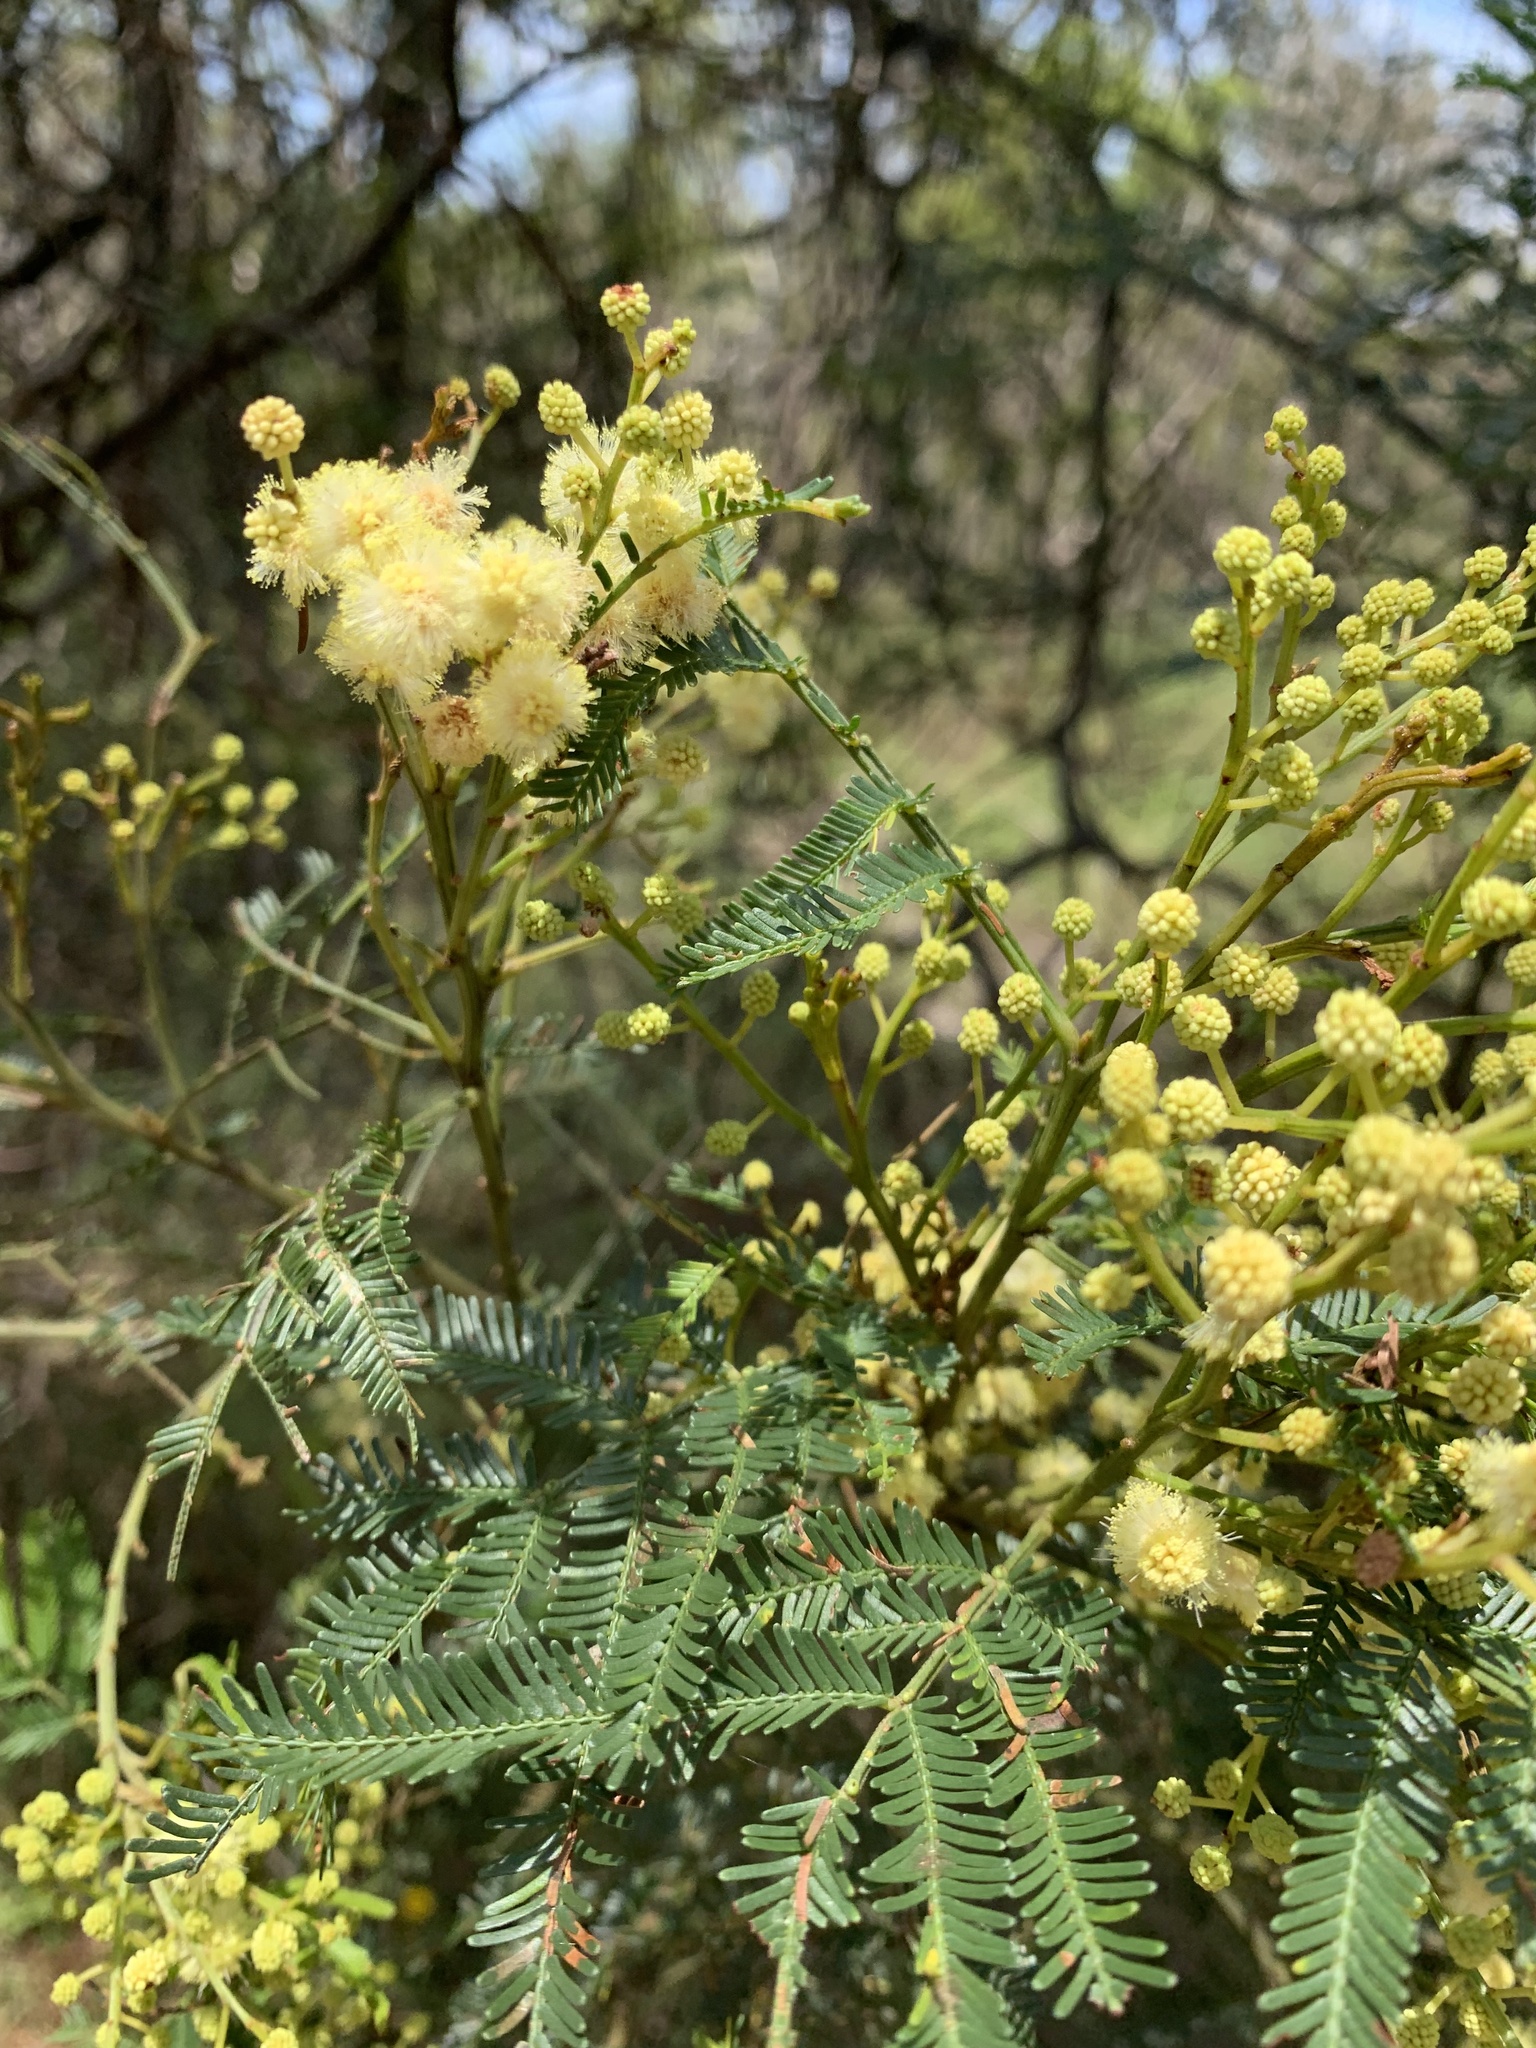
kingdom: Plantae
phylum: Tracheophyta
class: Magnoliopsida
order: Fabales
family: Fabaceae
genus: Acacia
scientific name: Acacia parramattensis
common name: Sydney green wattle
